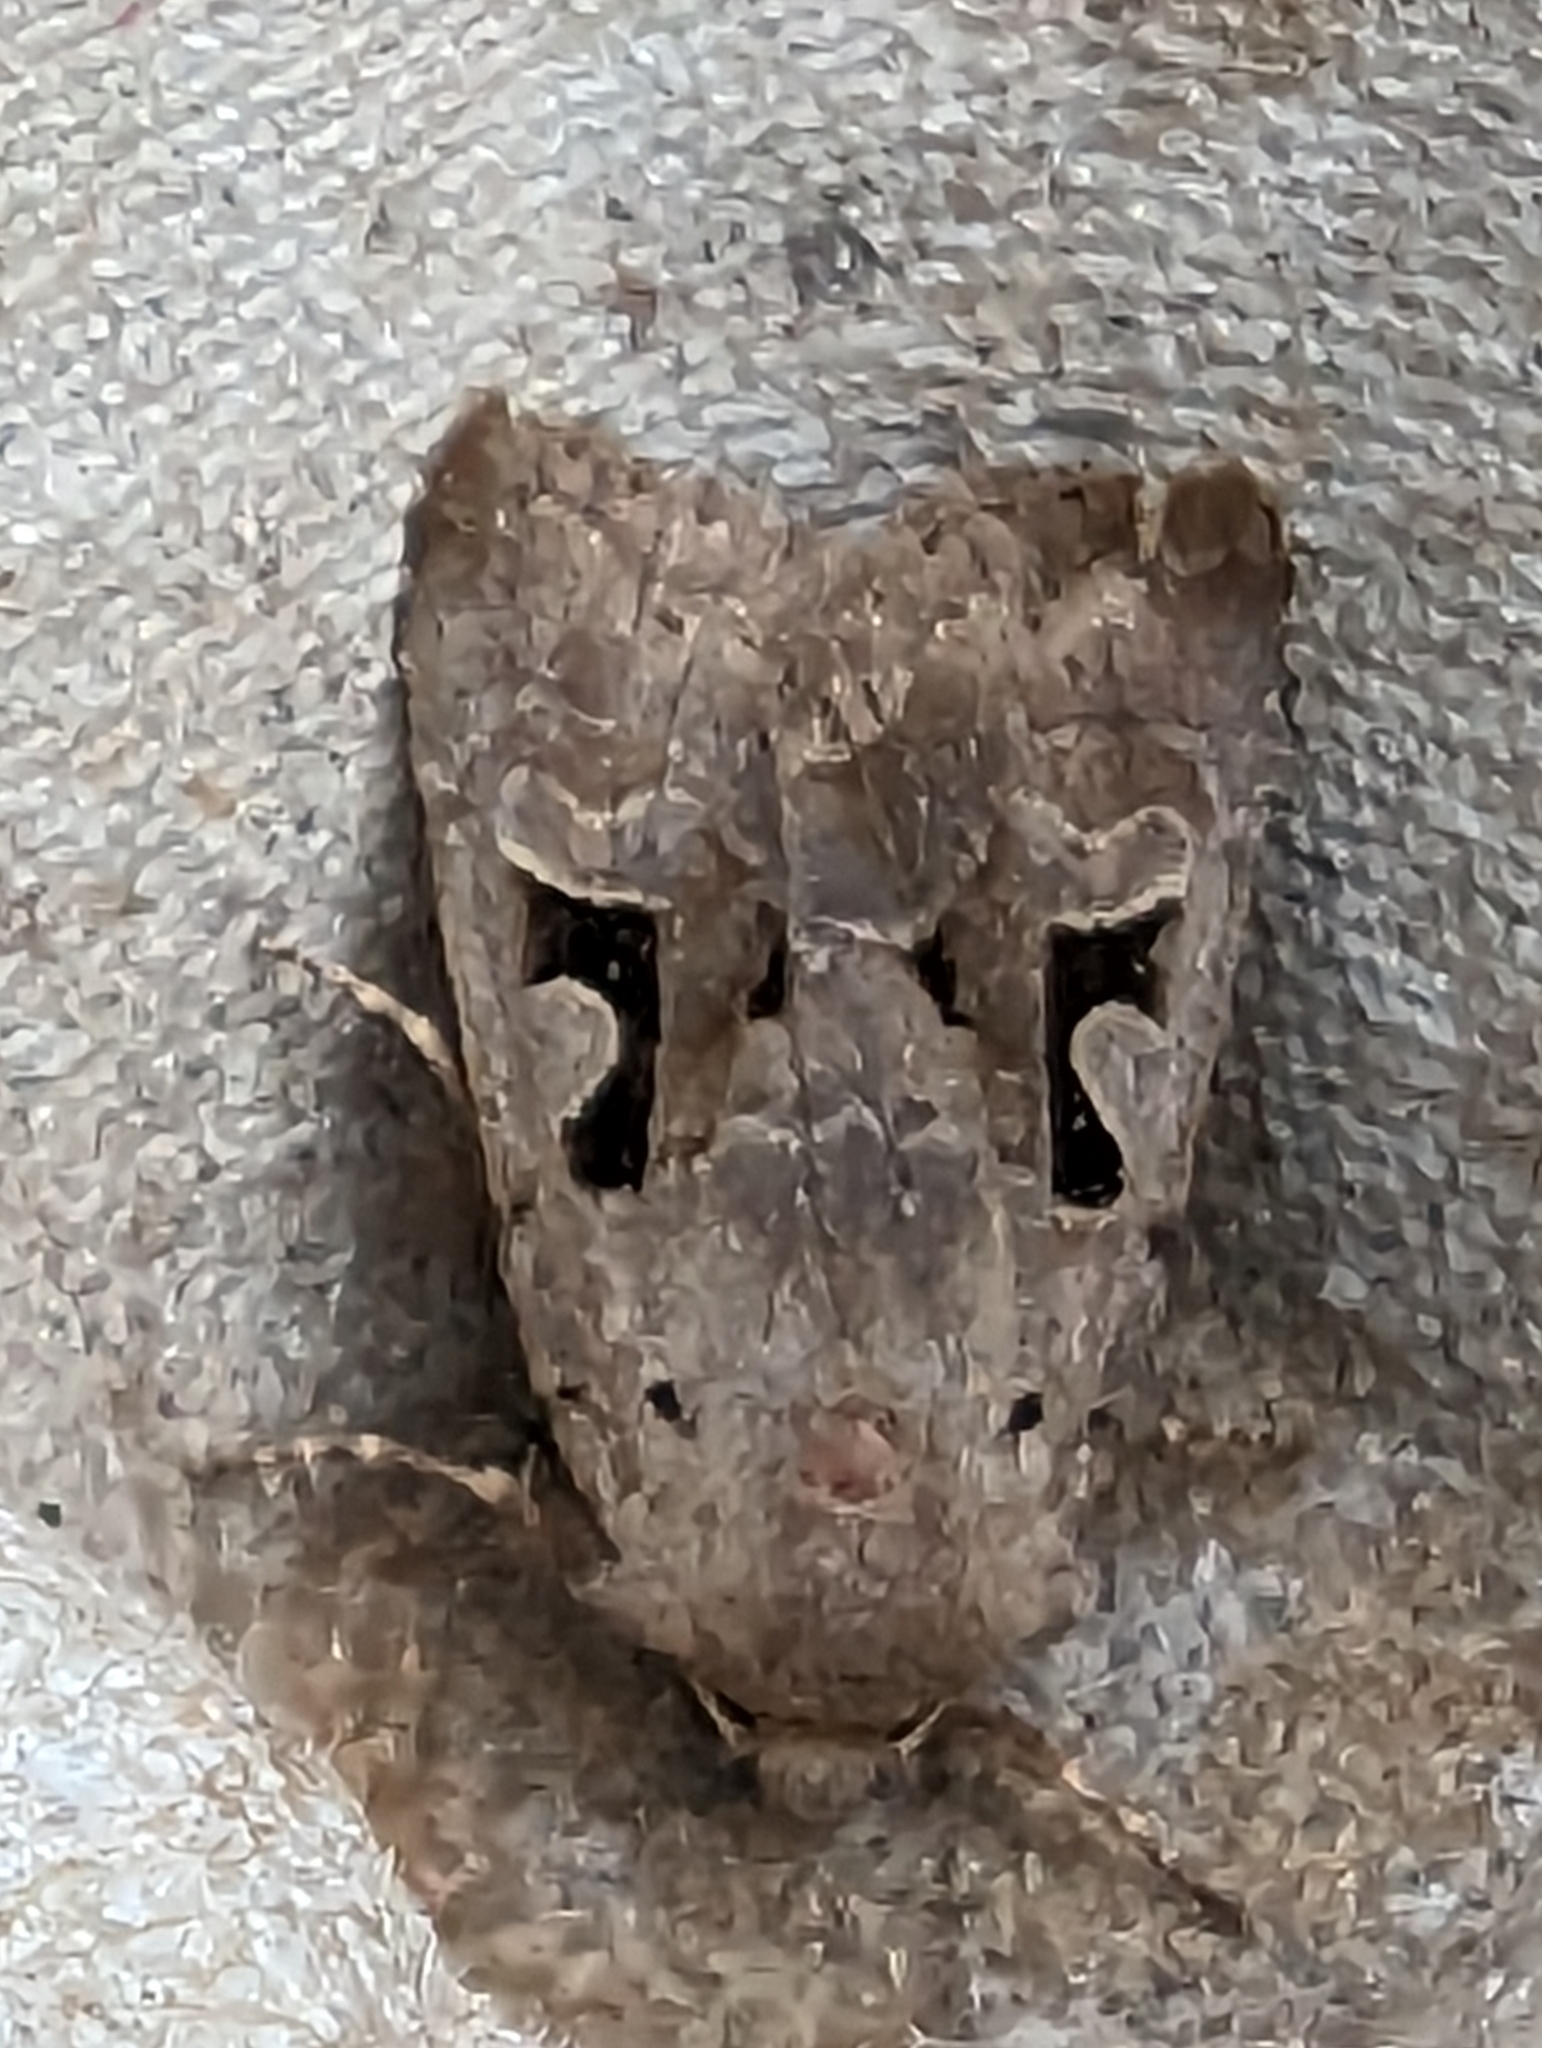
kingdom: Animalia
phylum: Arthropoda
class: Insecta
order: Lepidoptera
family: Noctuidae
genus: Orthosia
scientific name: Orthosia gothica
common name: Hebrew character
